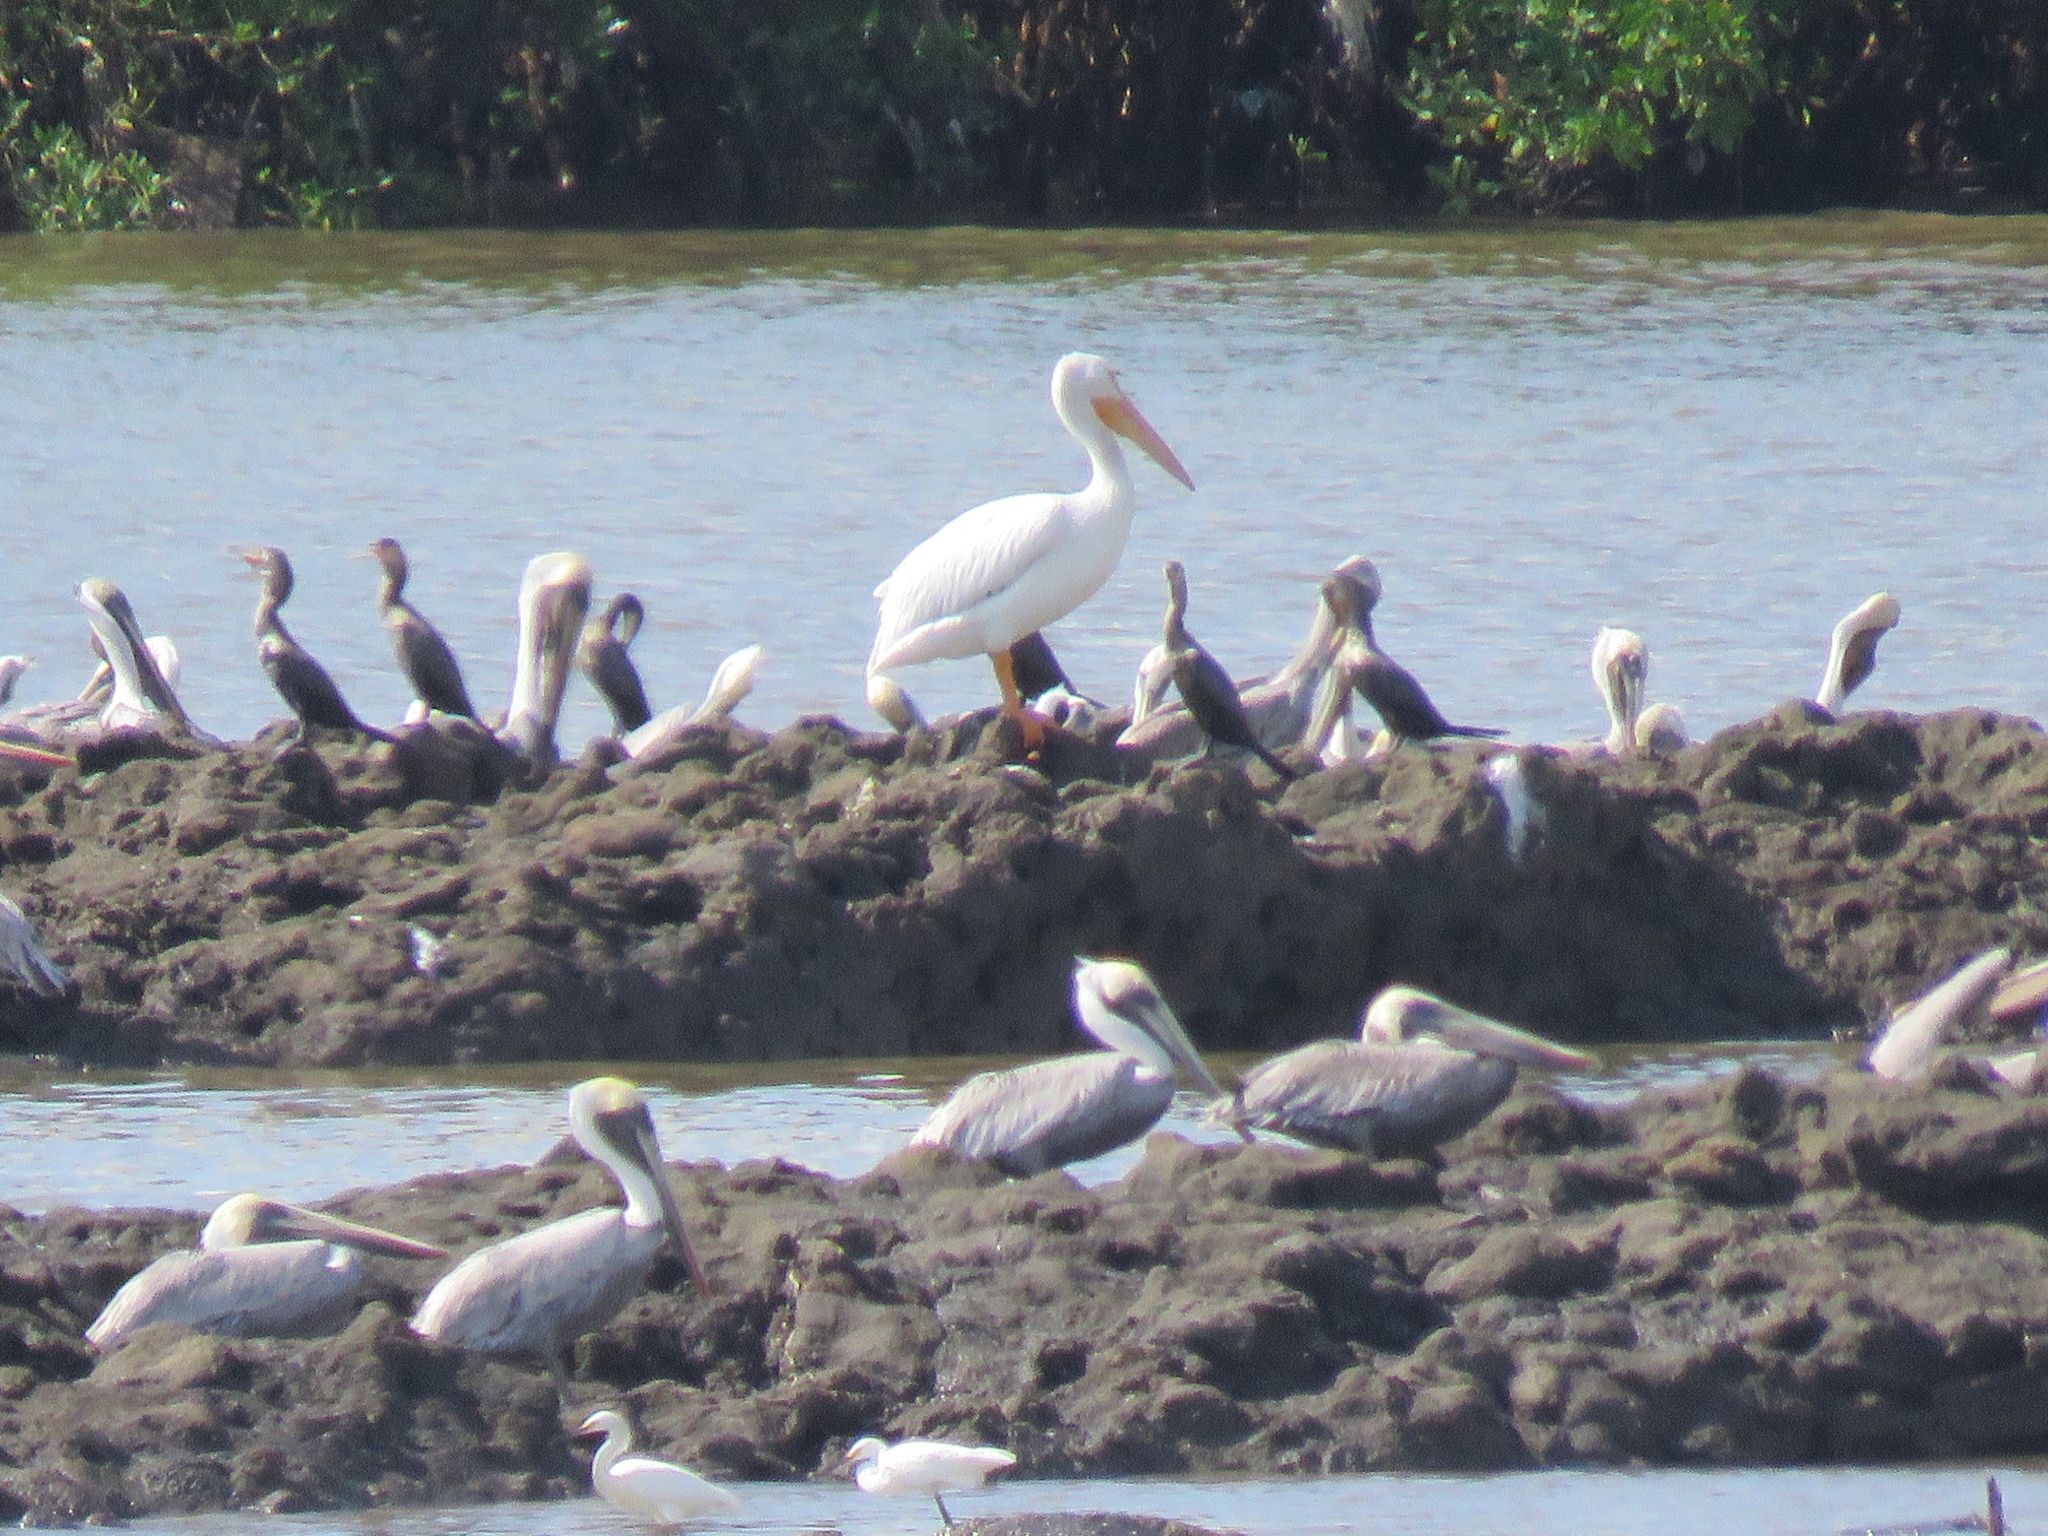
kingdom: Animalia
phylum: Chordata
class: Aves
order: Pelecaniformes
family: Pelecanidae
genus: Pelecanus
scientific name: Pelecanus erythrorhynchos
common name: American white pelican
